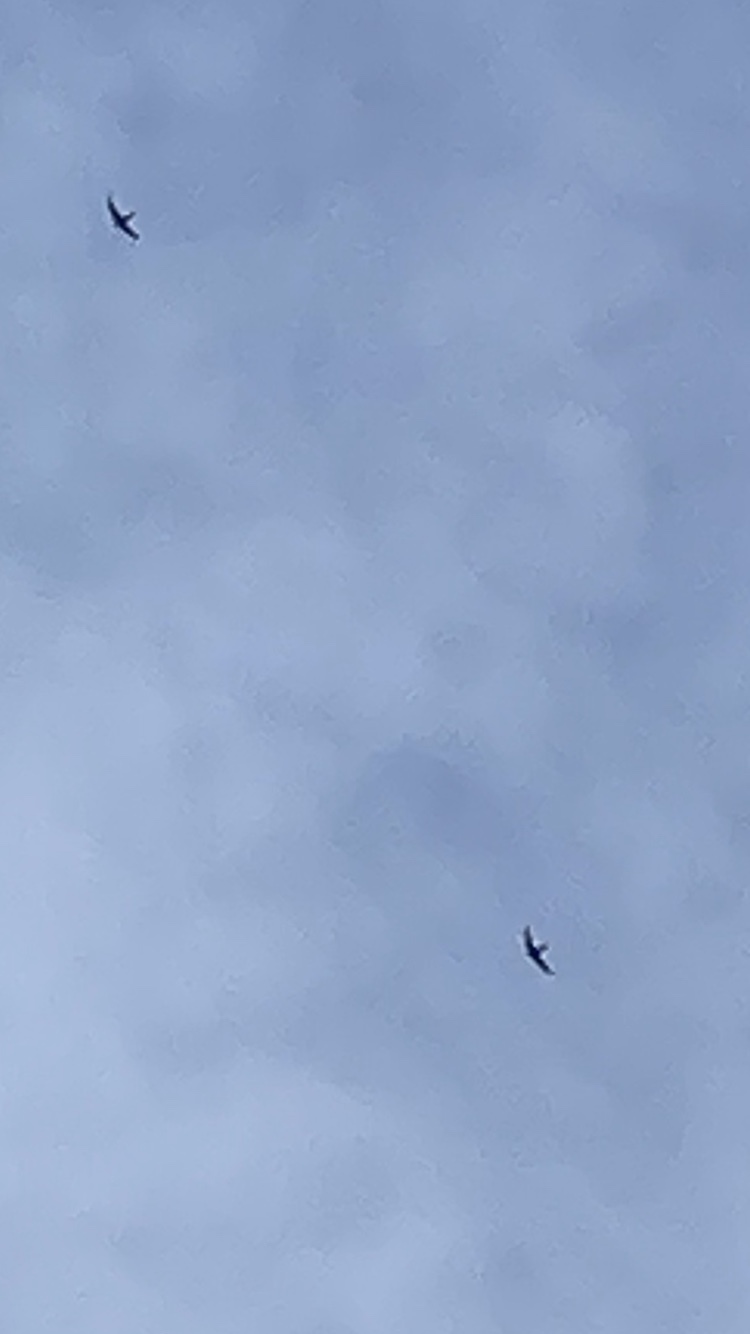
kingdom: Animalia
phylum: Chordata
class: Aves
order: Apodiformes
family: Apodidae
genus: Apus
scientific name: Apus apus
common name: Common swift
